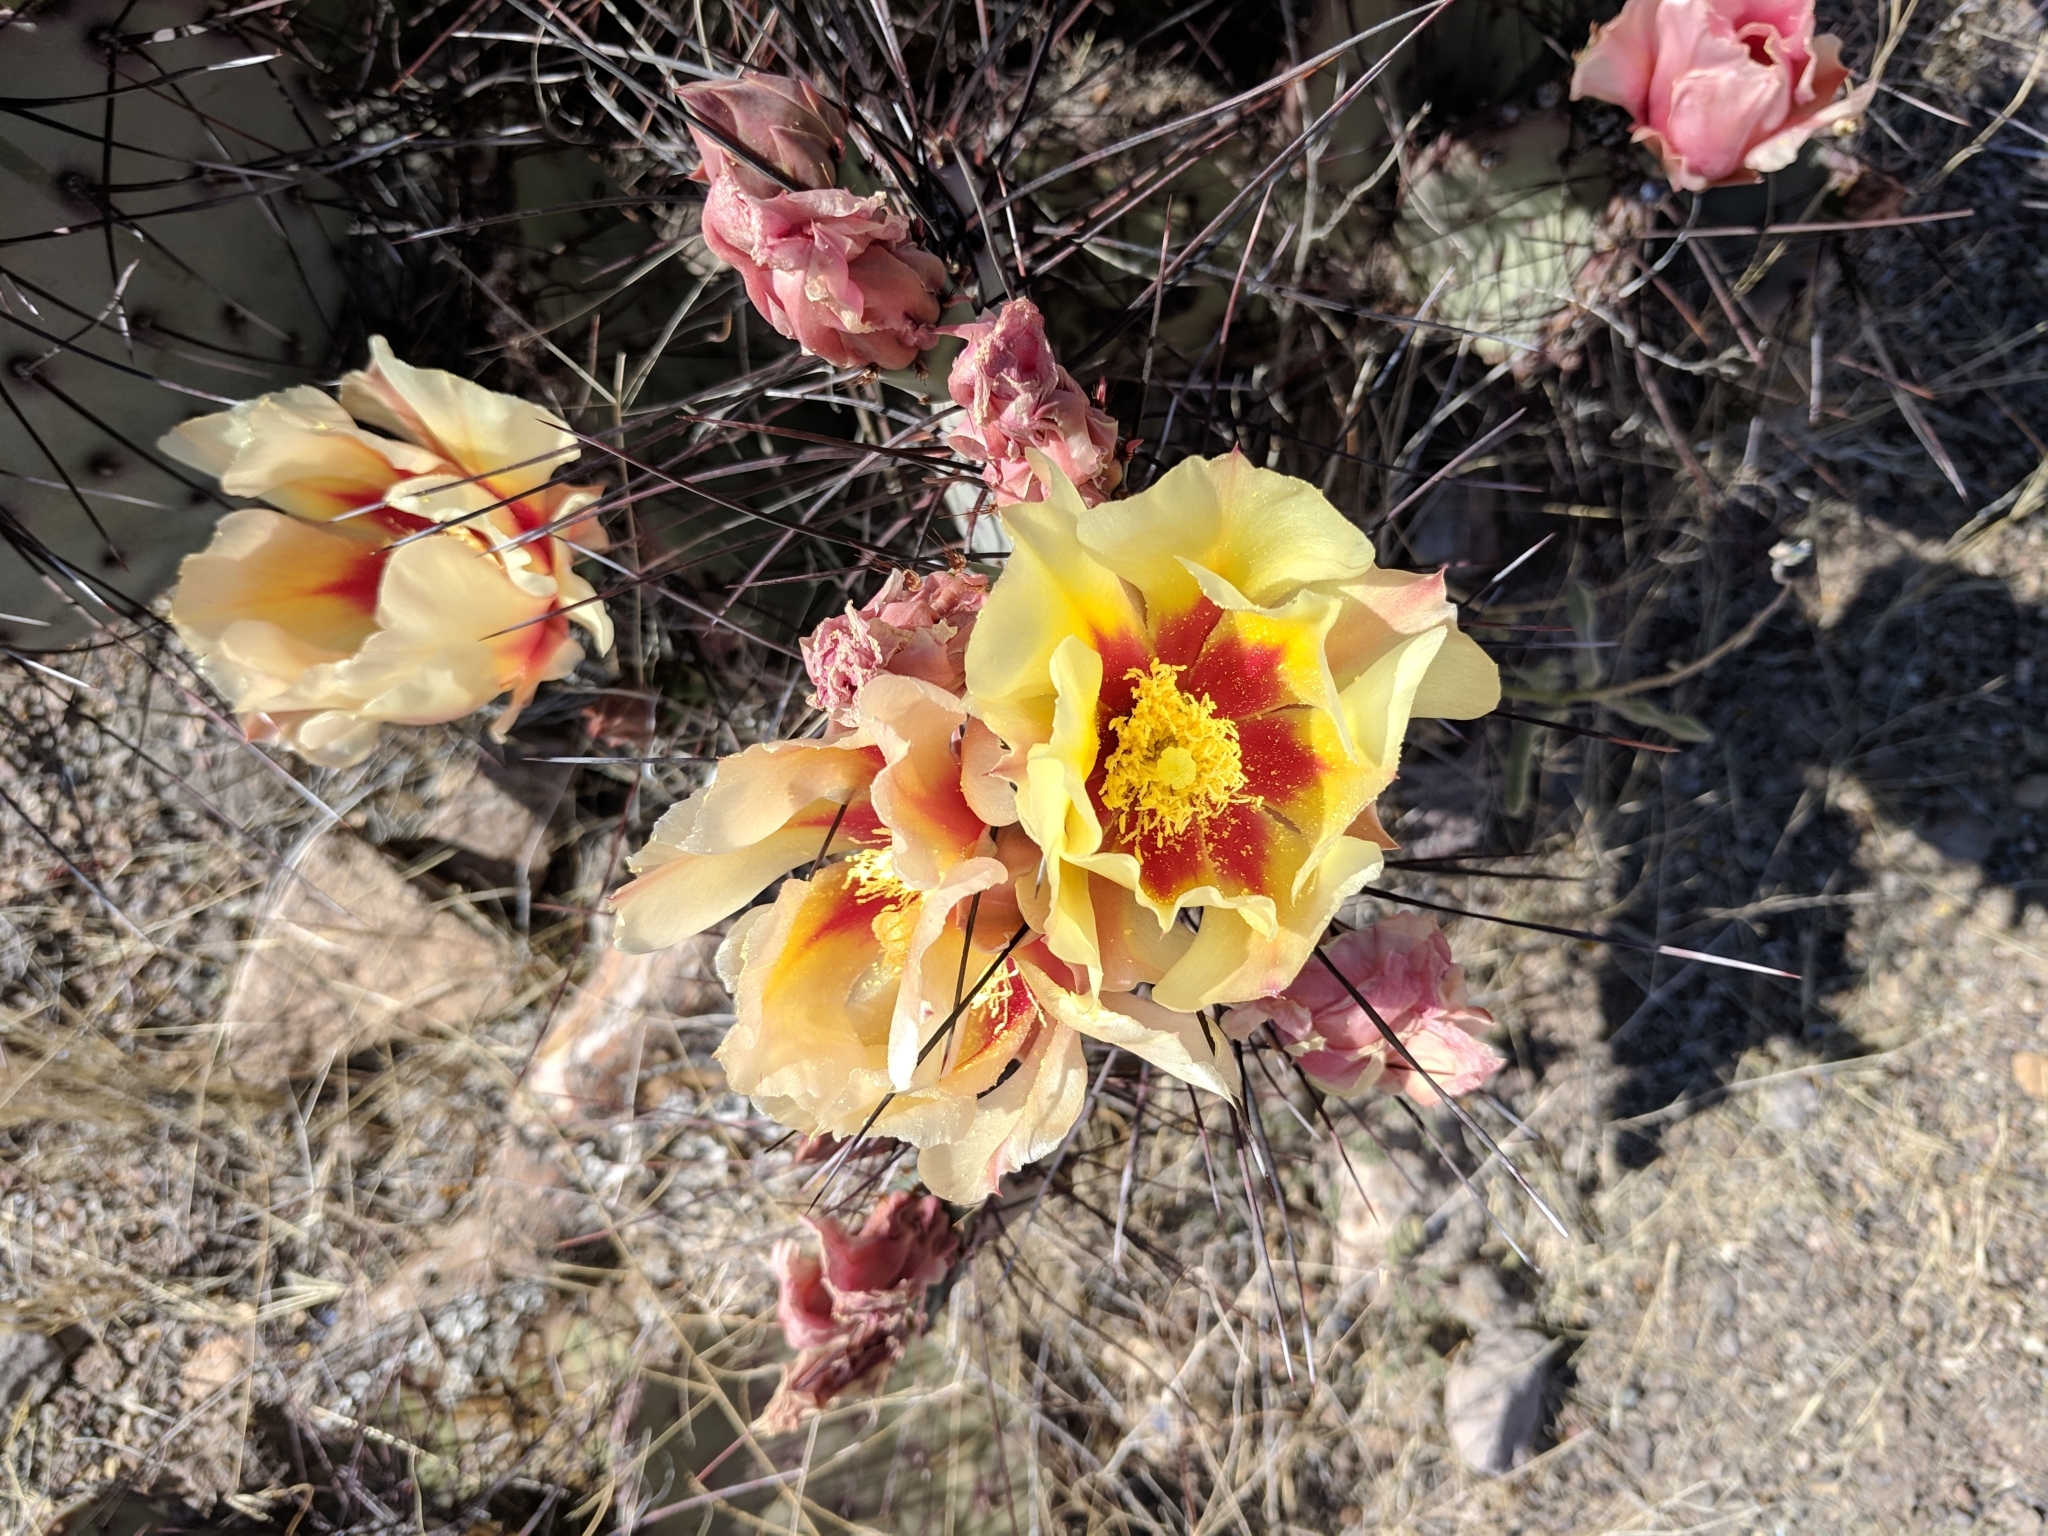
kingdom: Plantae
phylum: Tracheophyta
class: Magnoliopsida
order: Caryophyllales
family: Cactaceae
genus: Opuntia
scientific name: Opuntia aureispina
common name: Golden-spined prickly-pear
